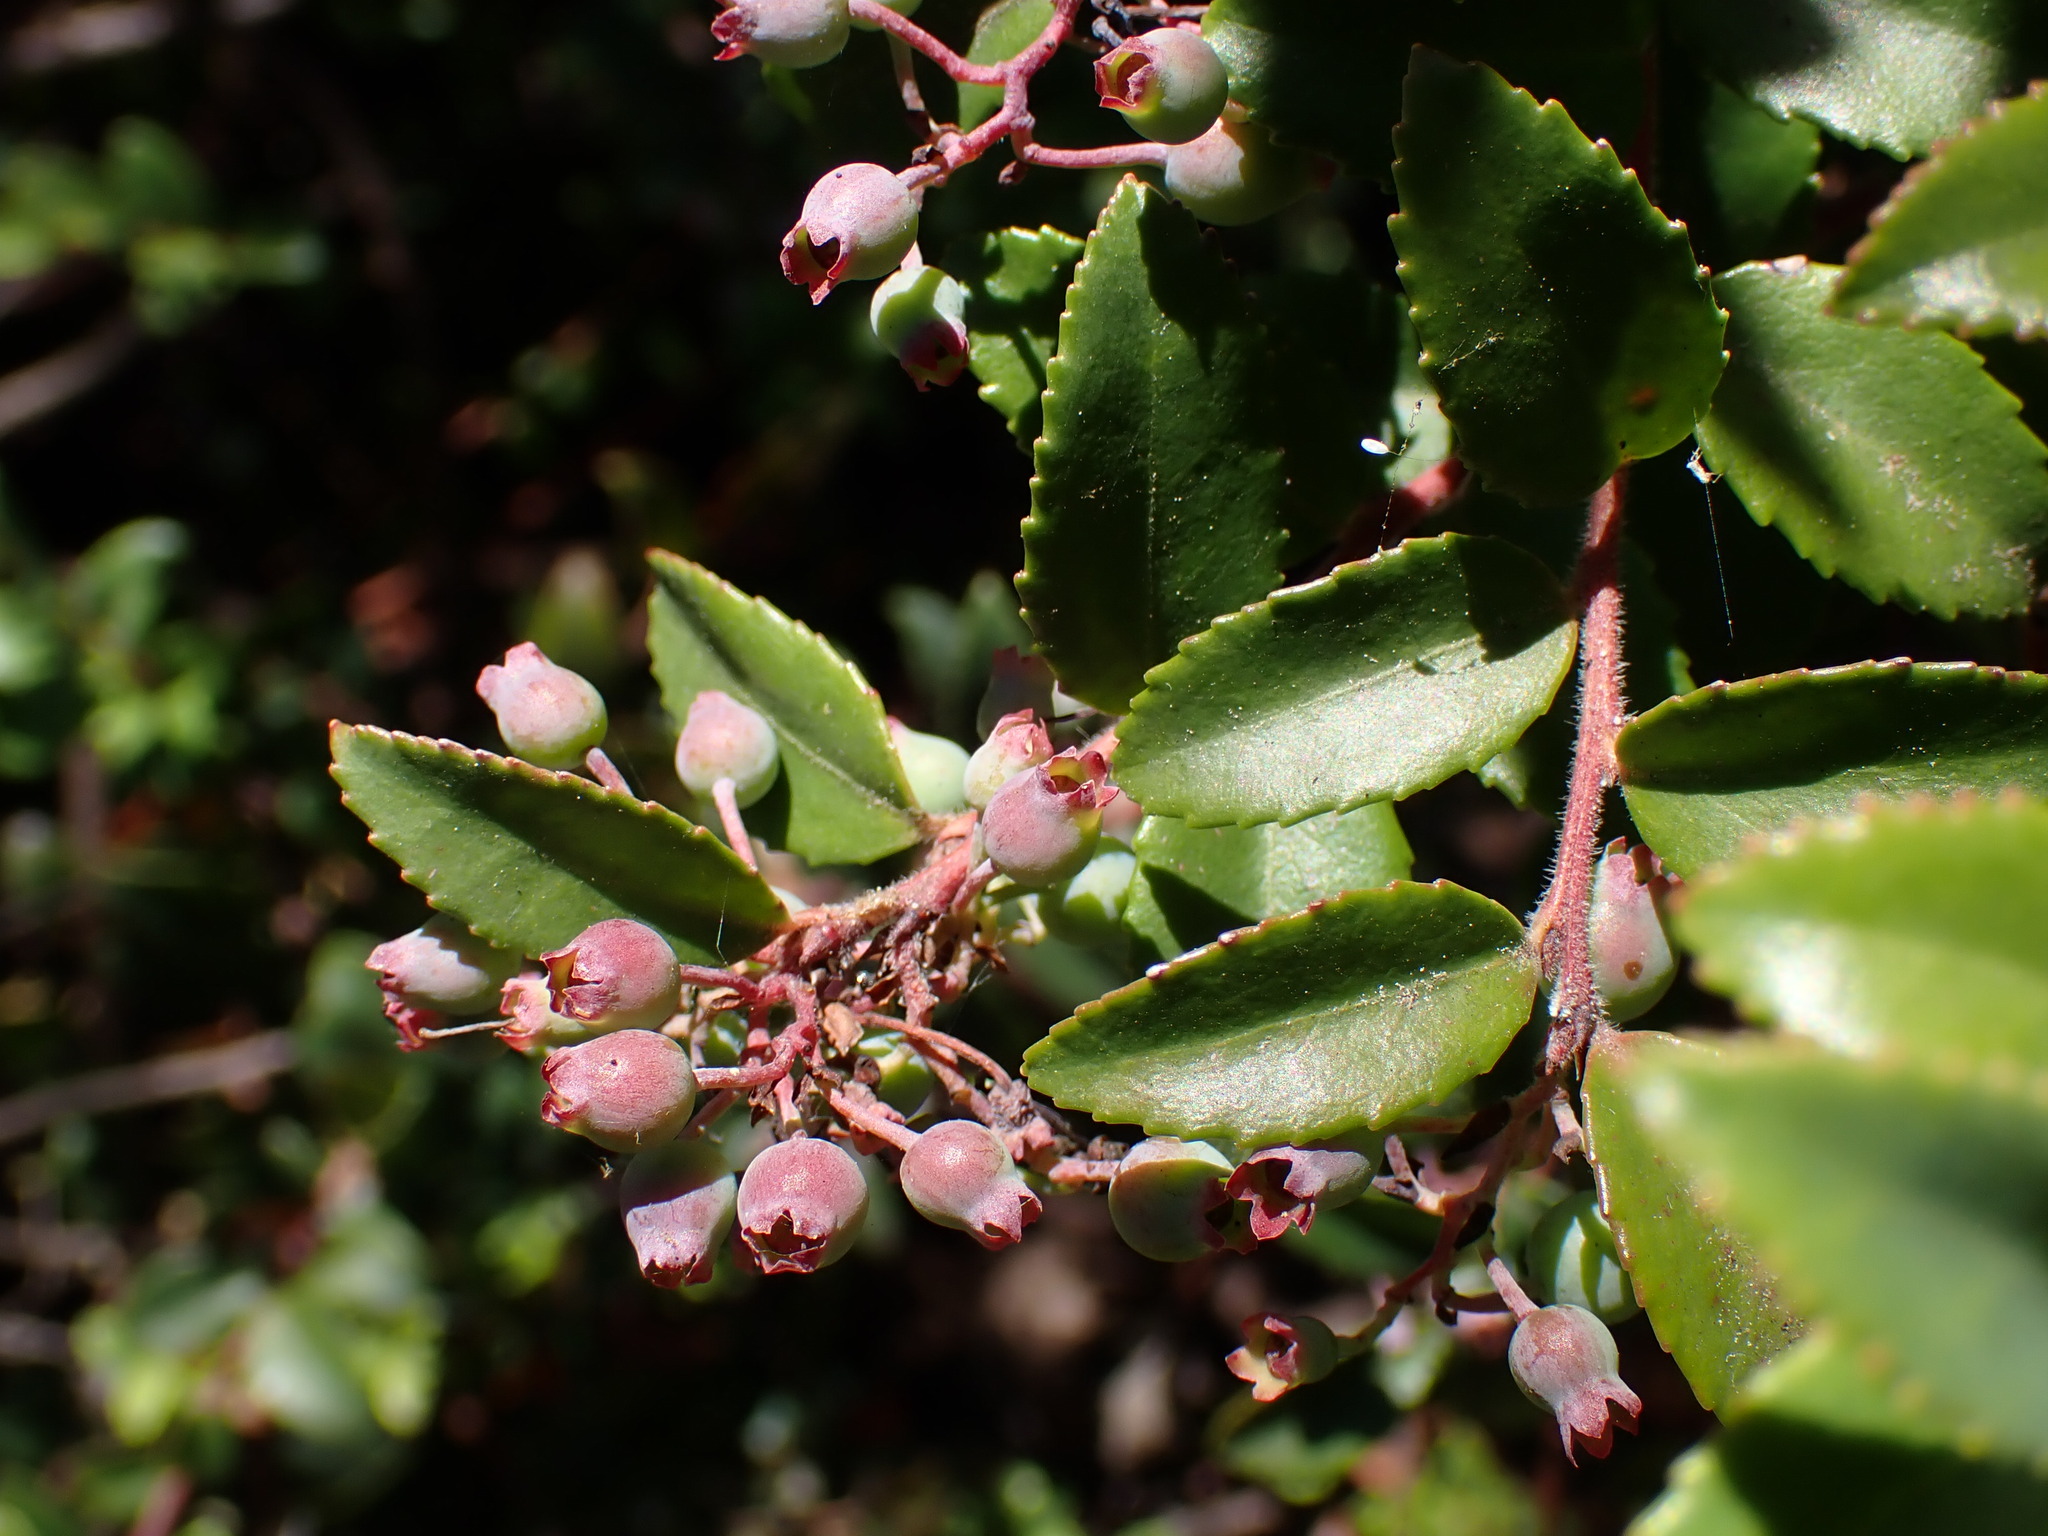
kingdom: Plantae
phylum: Tracheophyta
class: Magnoliopsida
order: Ericales
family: Ericaceae
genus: Vaccinium
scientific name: Vaccinium ovatum
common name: California-huckleberry
